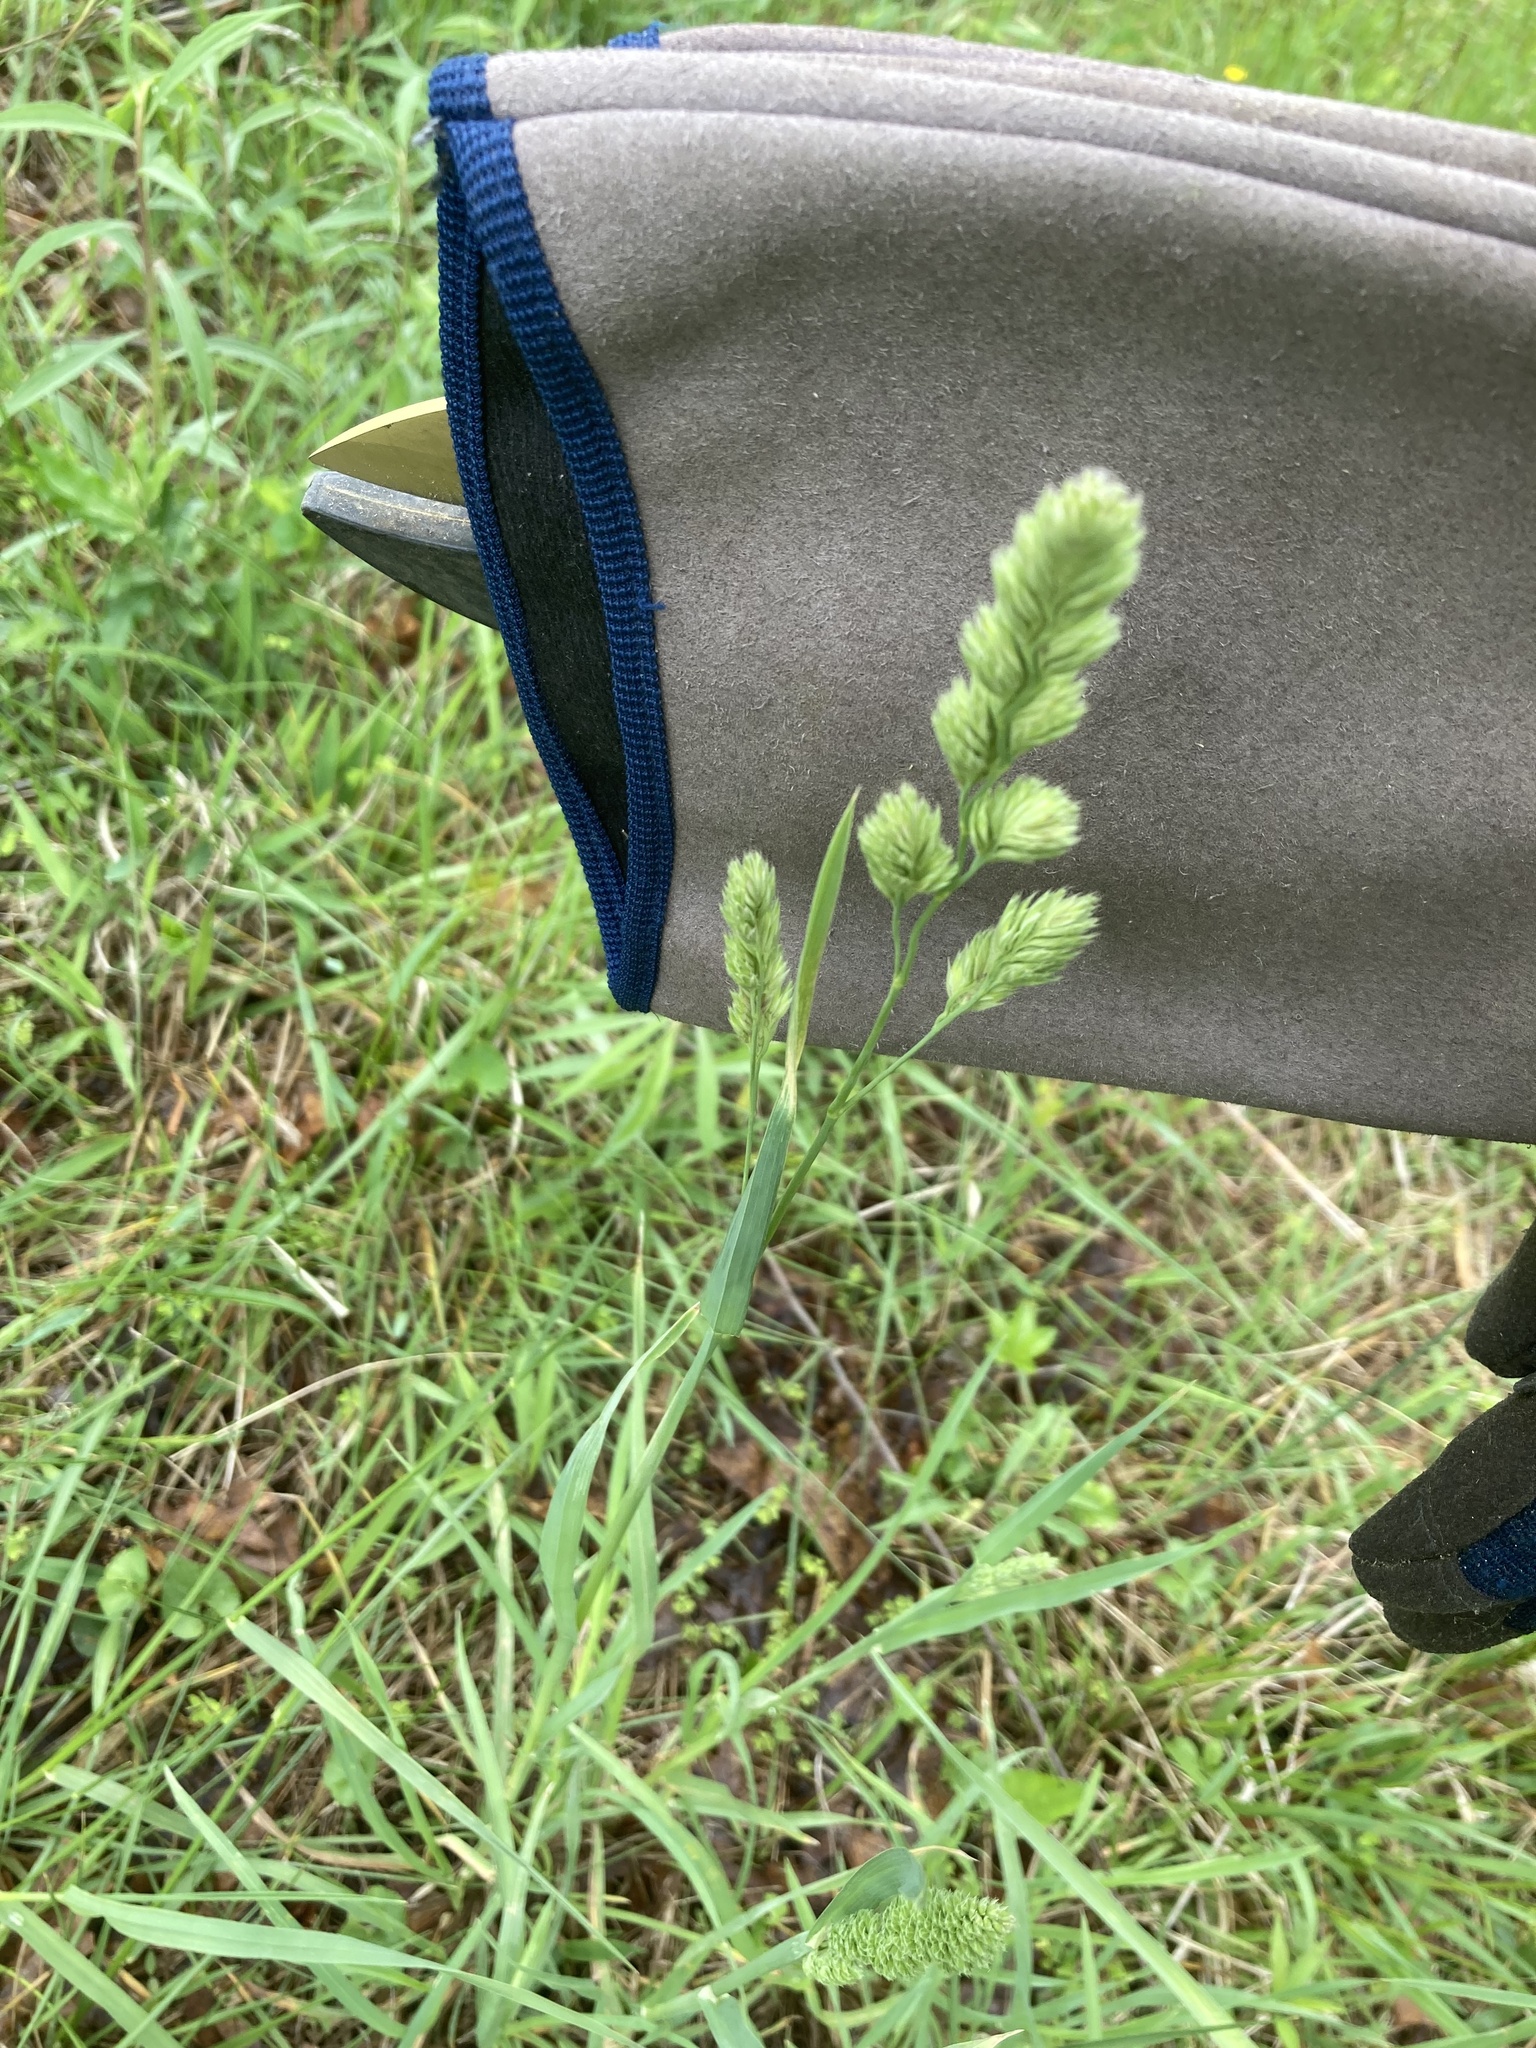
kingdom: Plantae
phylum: Tracheophyta
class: Liliopsida
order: Poales
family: Poaceae
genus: Dactylis
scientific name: Dactylis glomerata
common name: Orchardgrass
